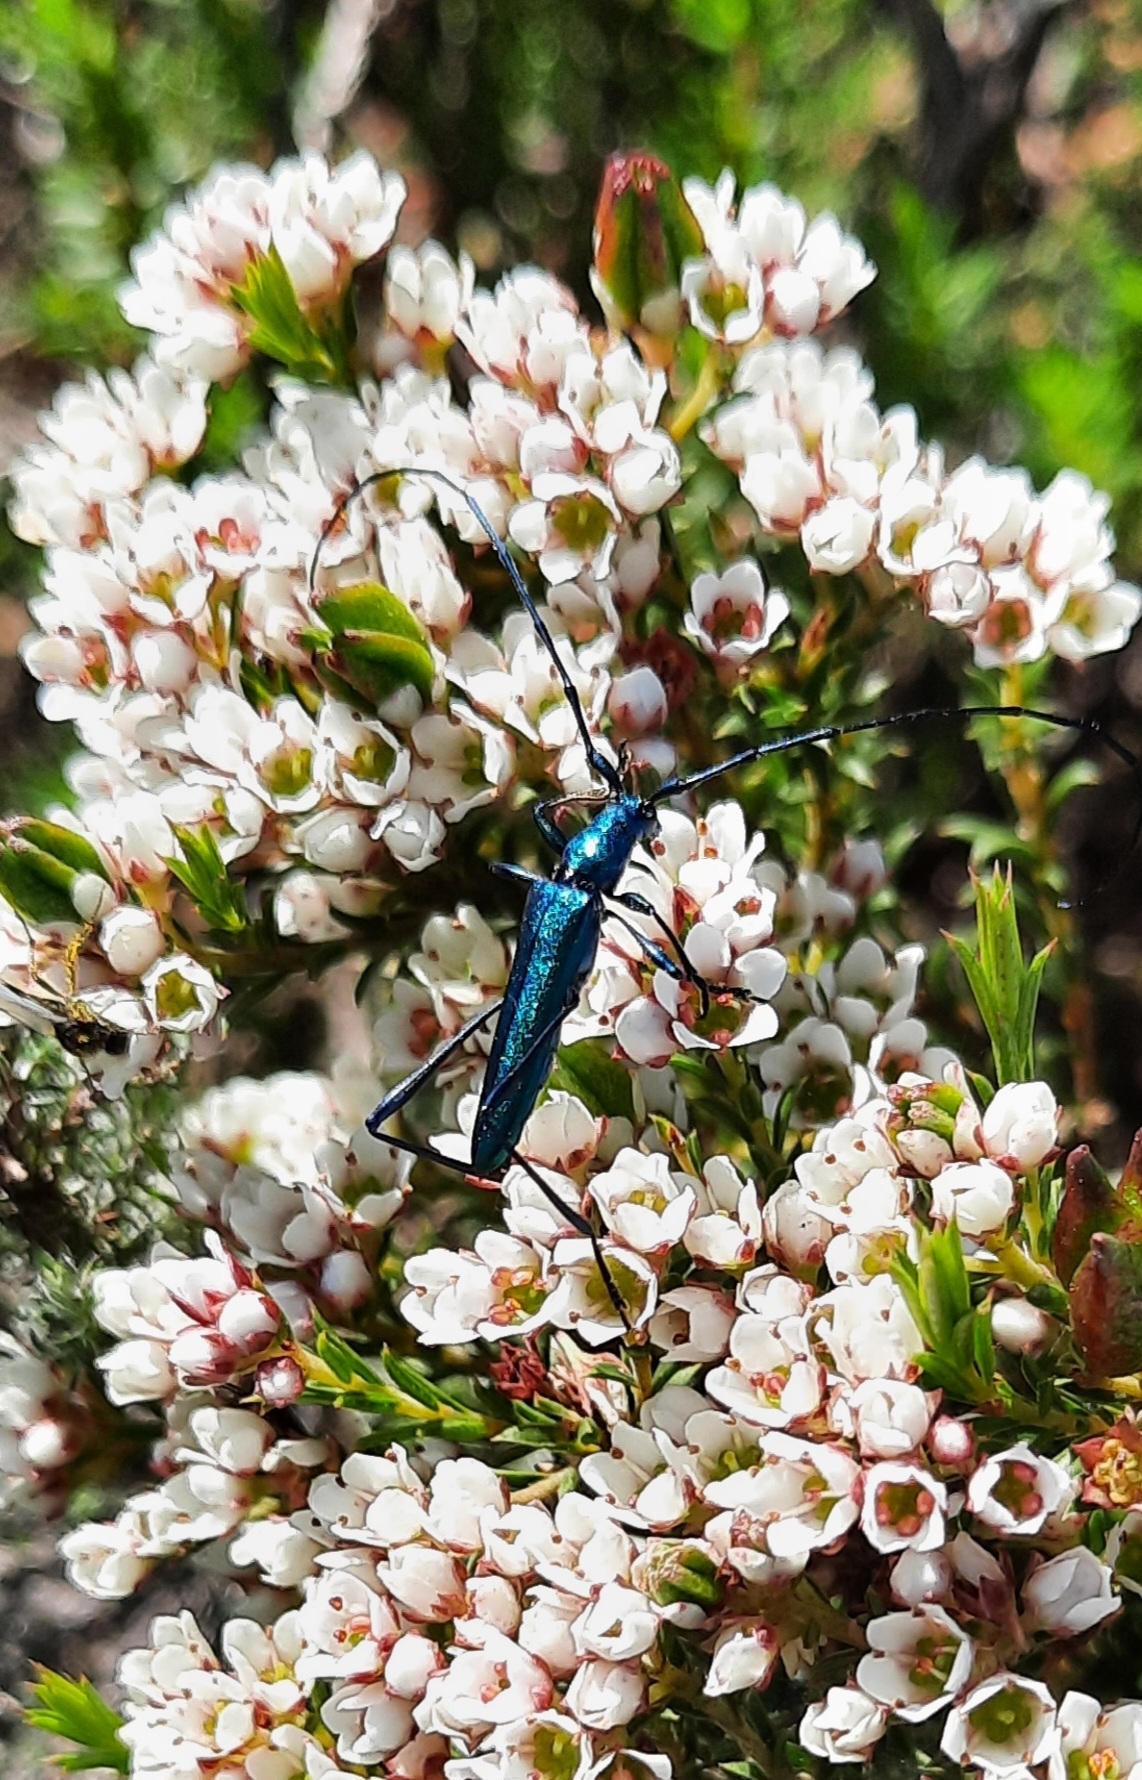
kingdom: Animalia
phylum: Arthropoda
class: Insecta
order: Coleoptera
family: Cerambycidae
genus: Promeces
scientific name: Promeces longipes
